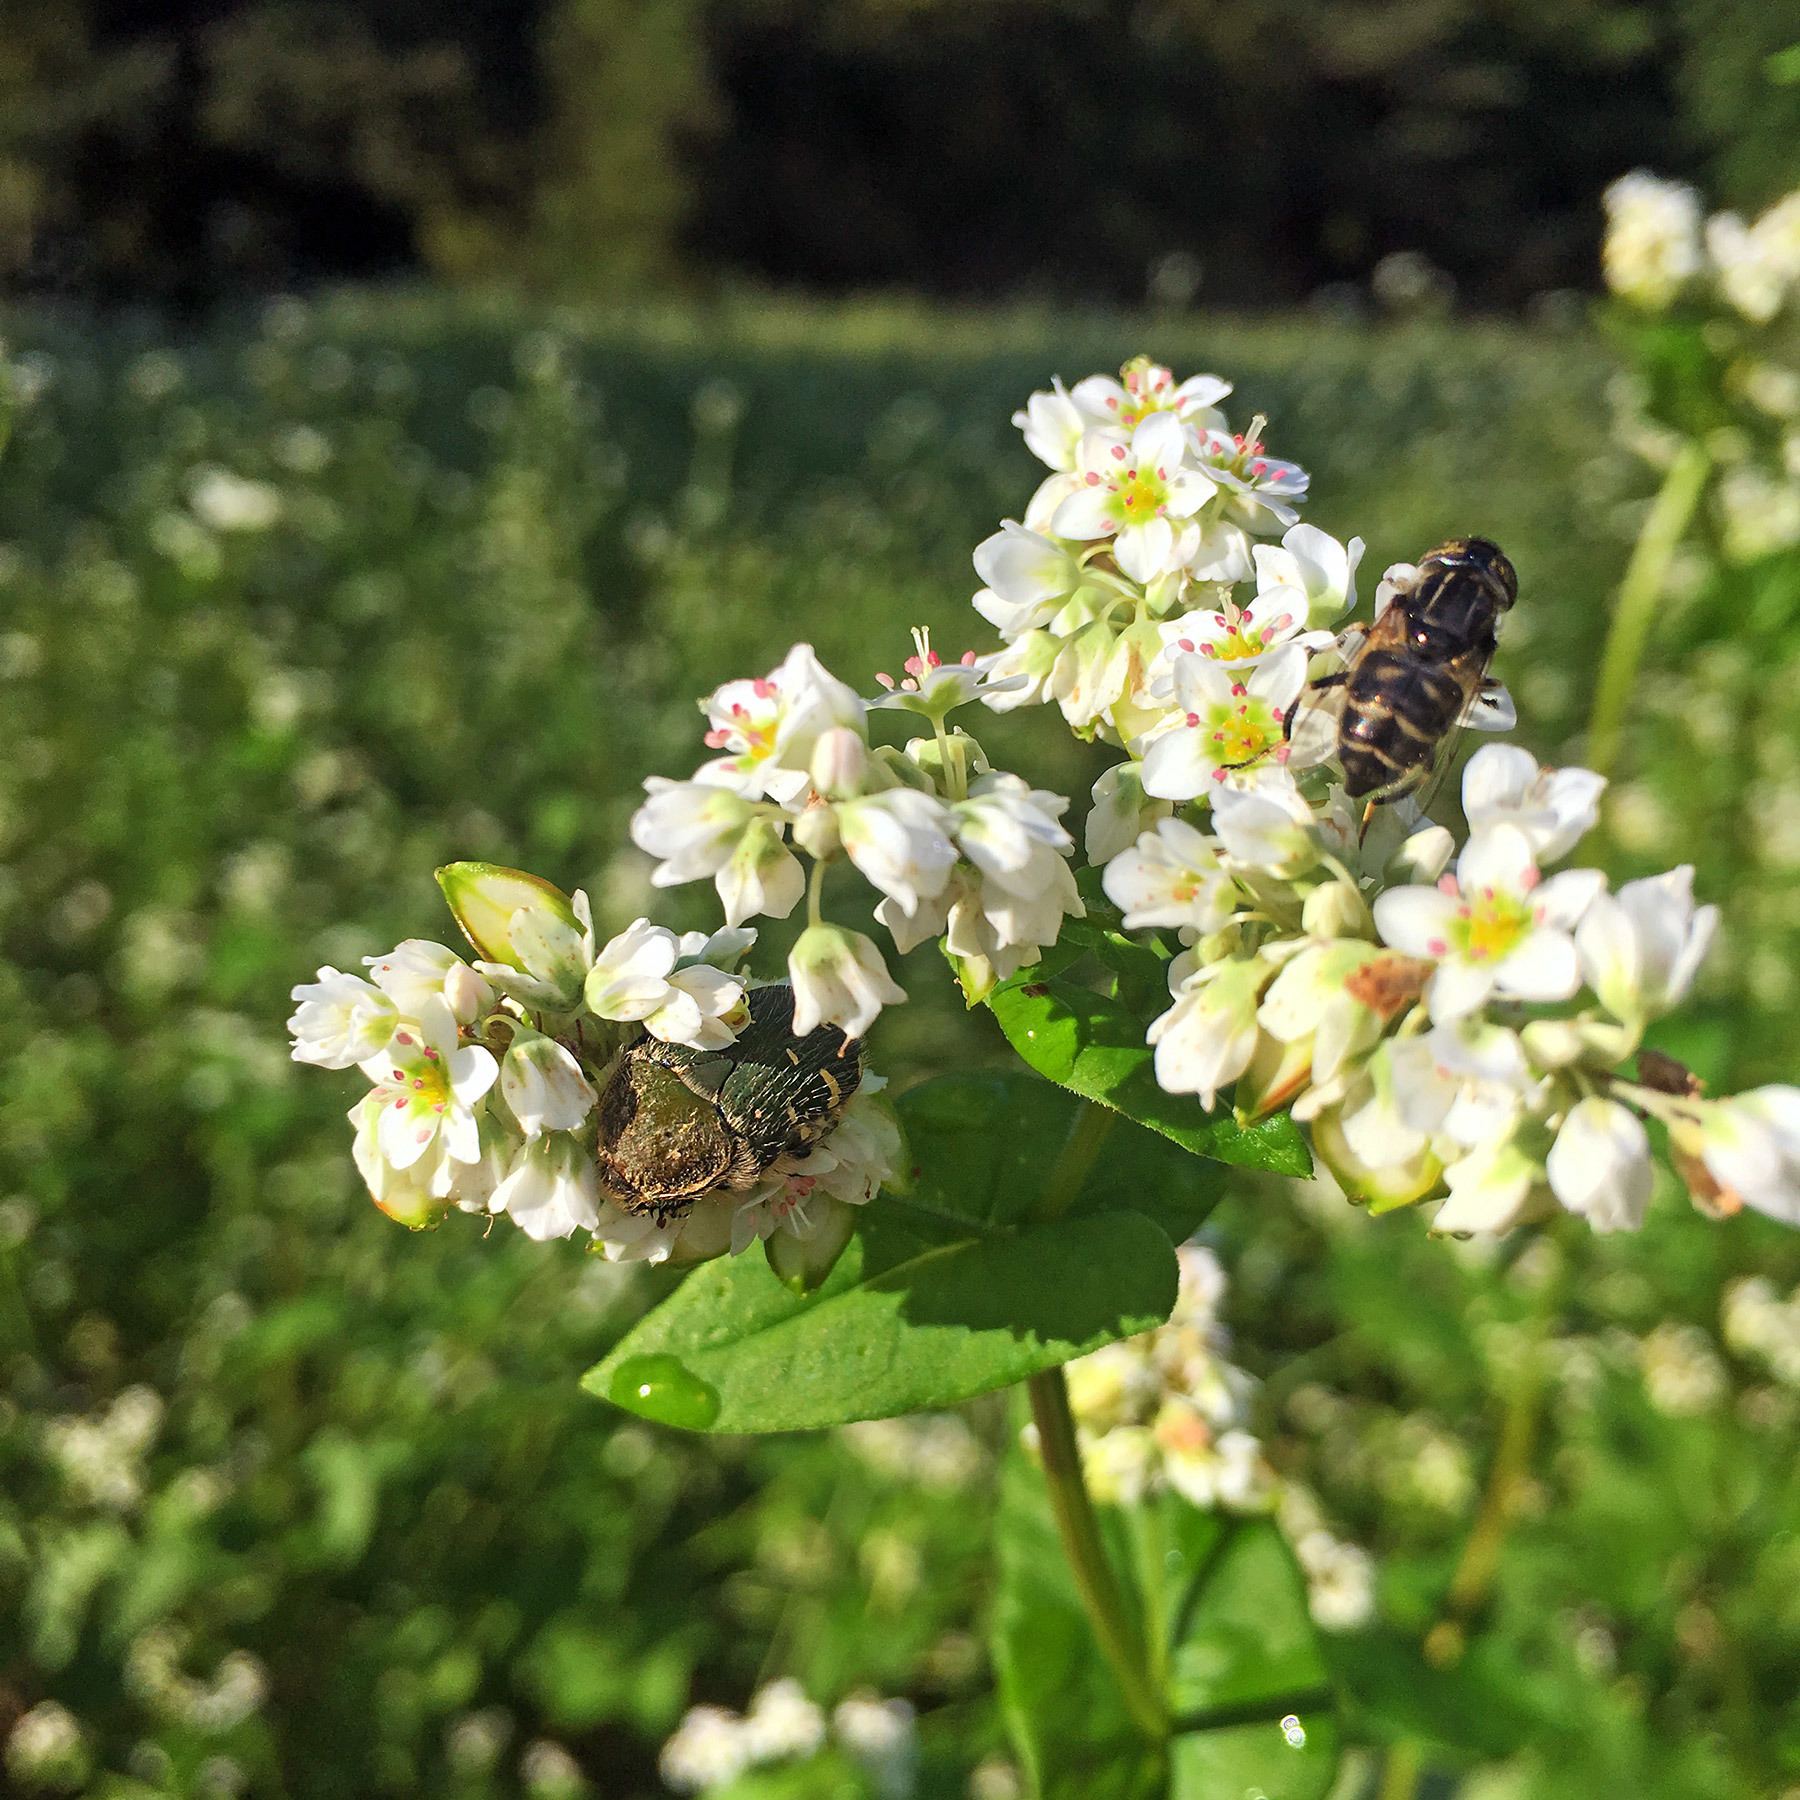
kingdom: Animalia
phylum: Arthropoda
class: Insecta
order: Coleoptera
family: Scarabaeidae
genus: Gametis
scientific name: Gametis jucunda
